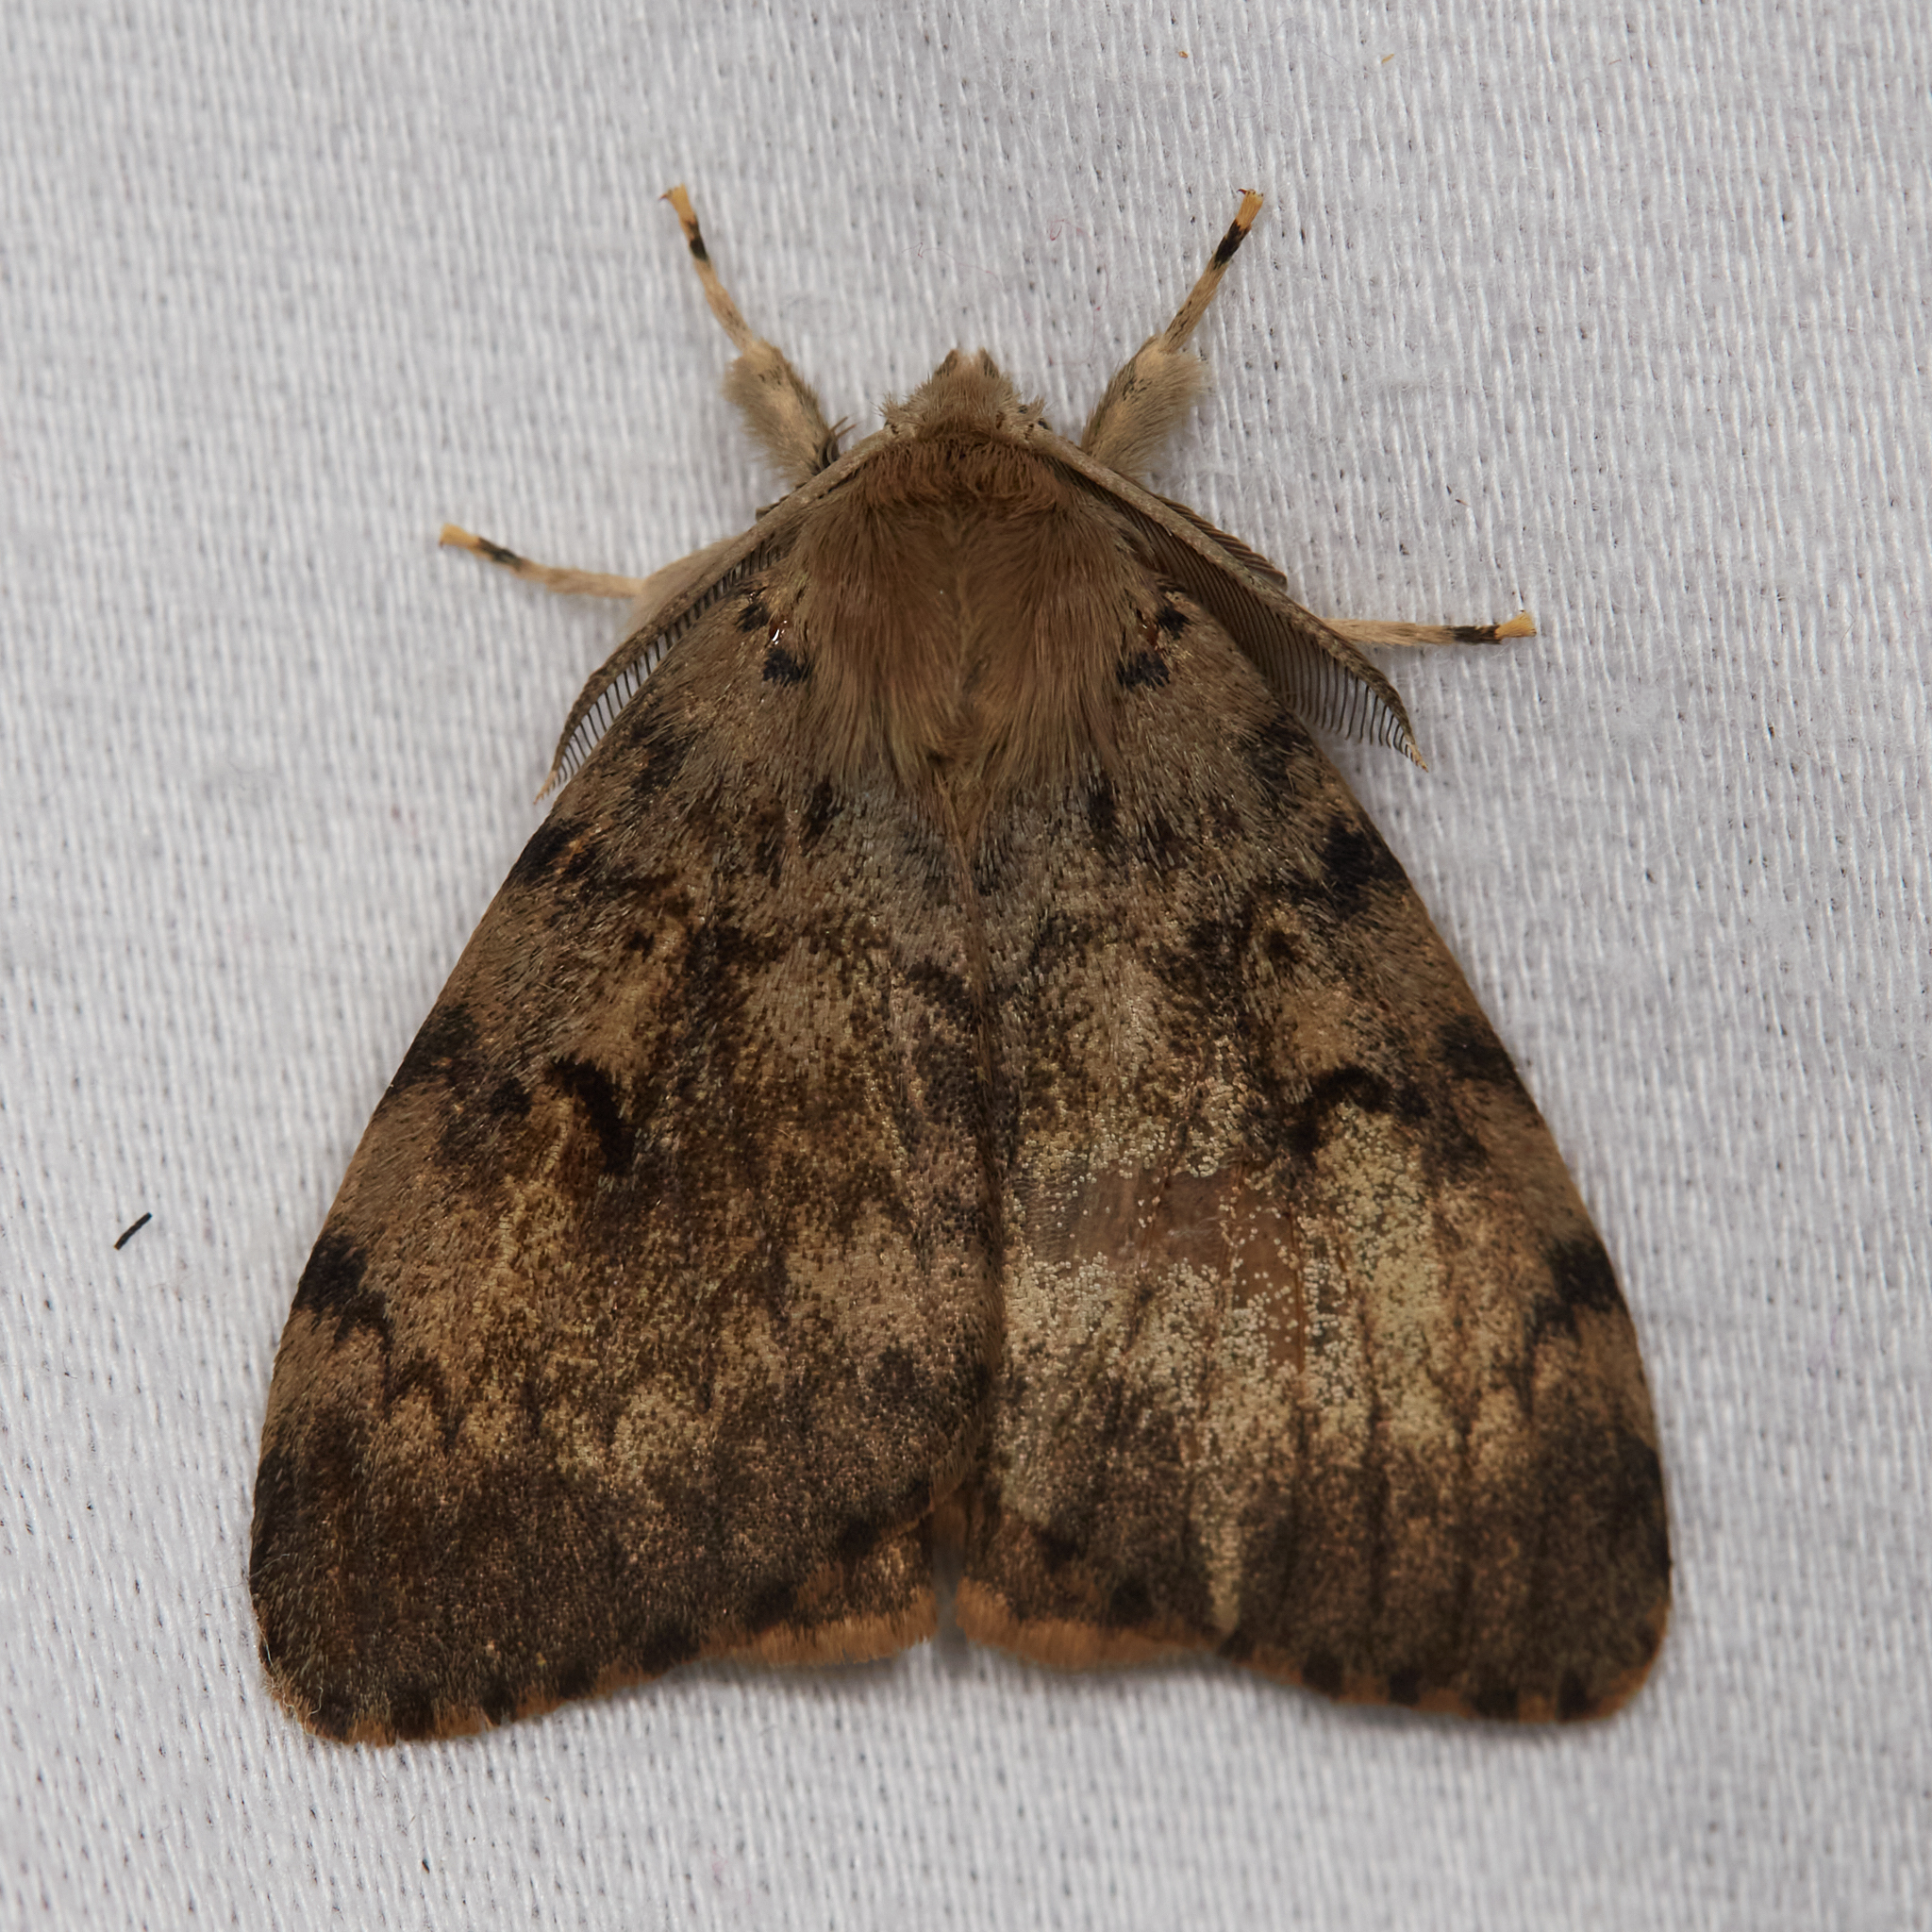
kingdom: Animalia
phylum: Arthropoda
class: Insecta
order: Lepidoptera
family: Erebidae
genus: Lymantria
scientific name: Lymantria dispar
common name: Gypsy moth
